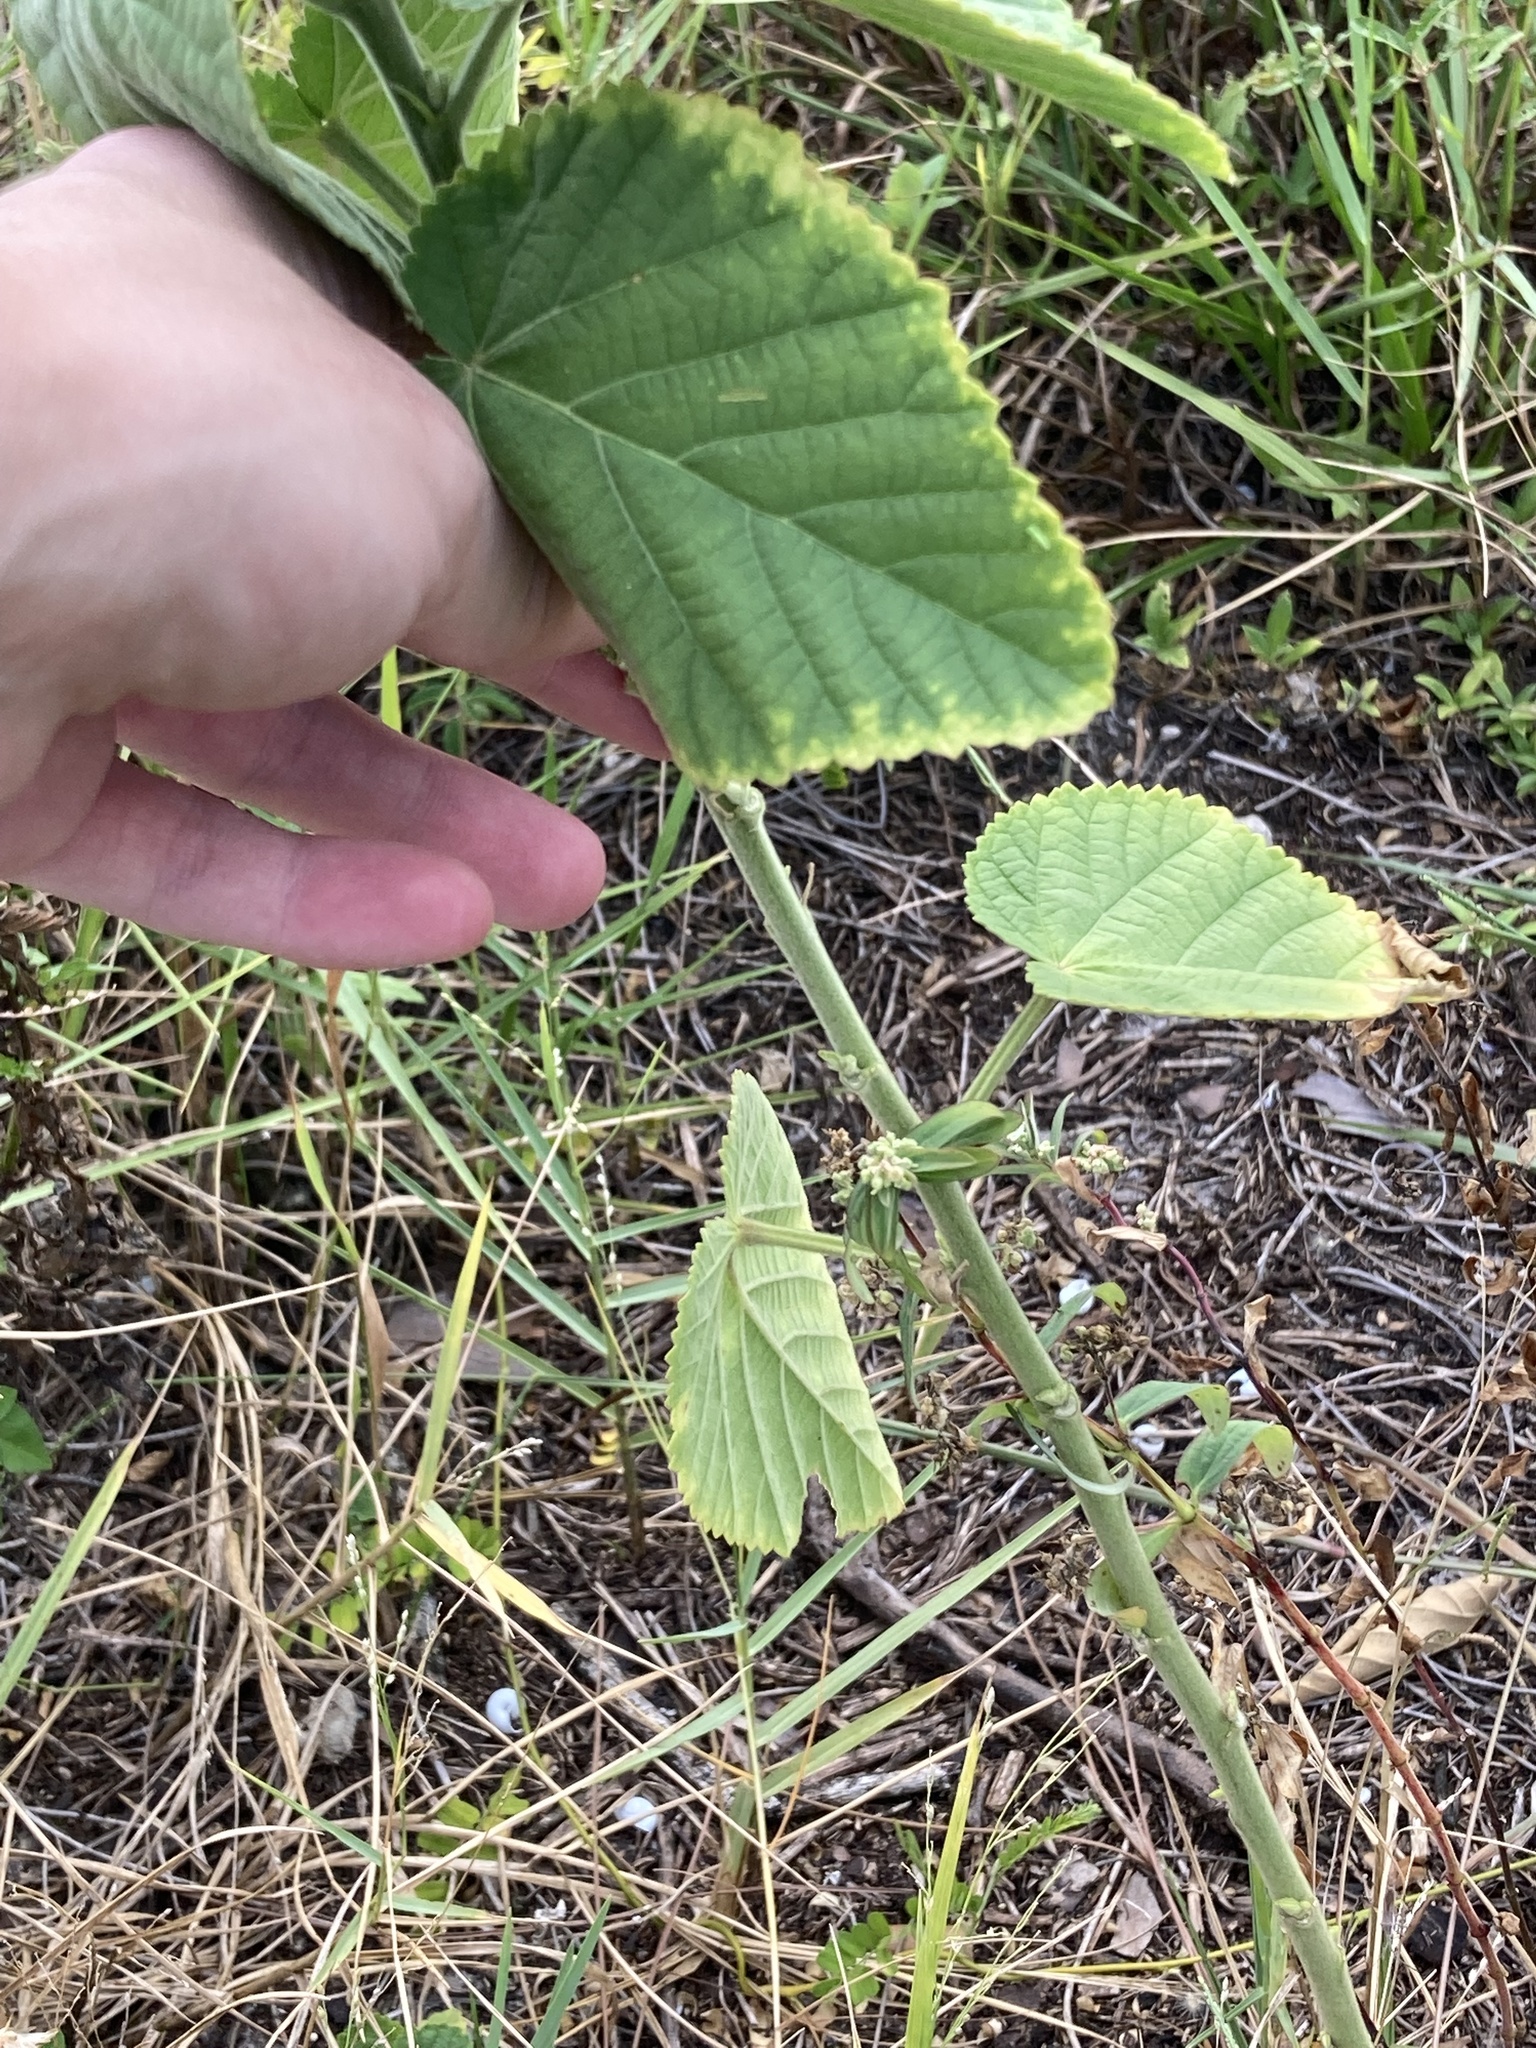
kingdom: Plantae
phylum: Tracheophyta
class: Magnoliopsida
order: Malvales
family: Malvaceae
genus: Sida
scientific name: Sida cordifolia
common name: Ilima
